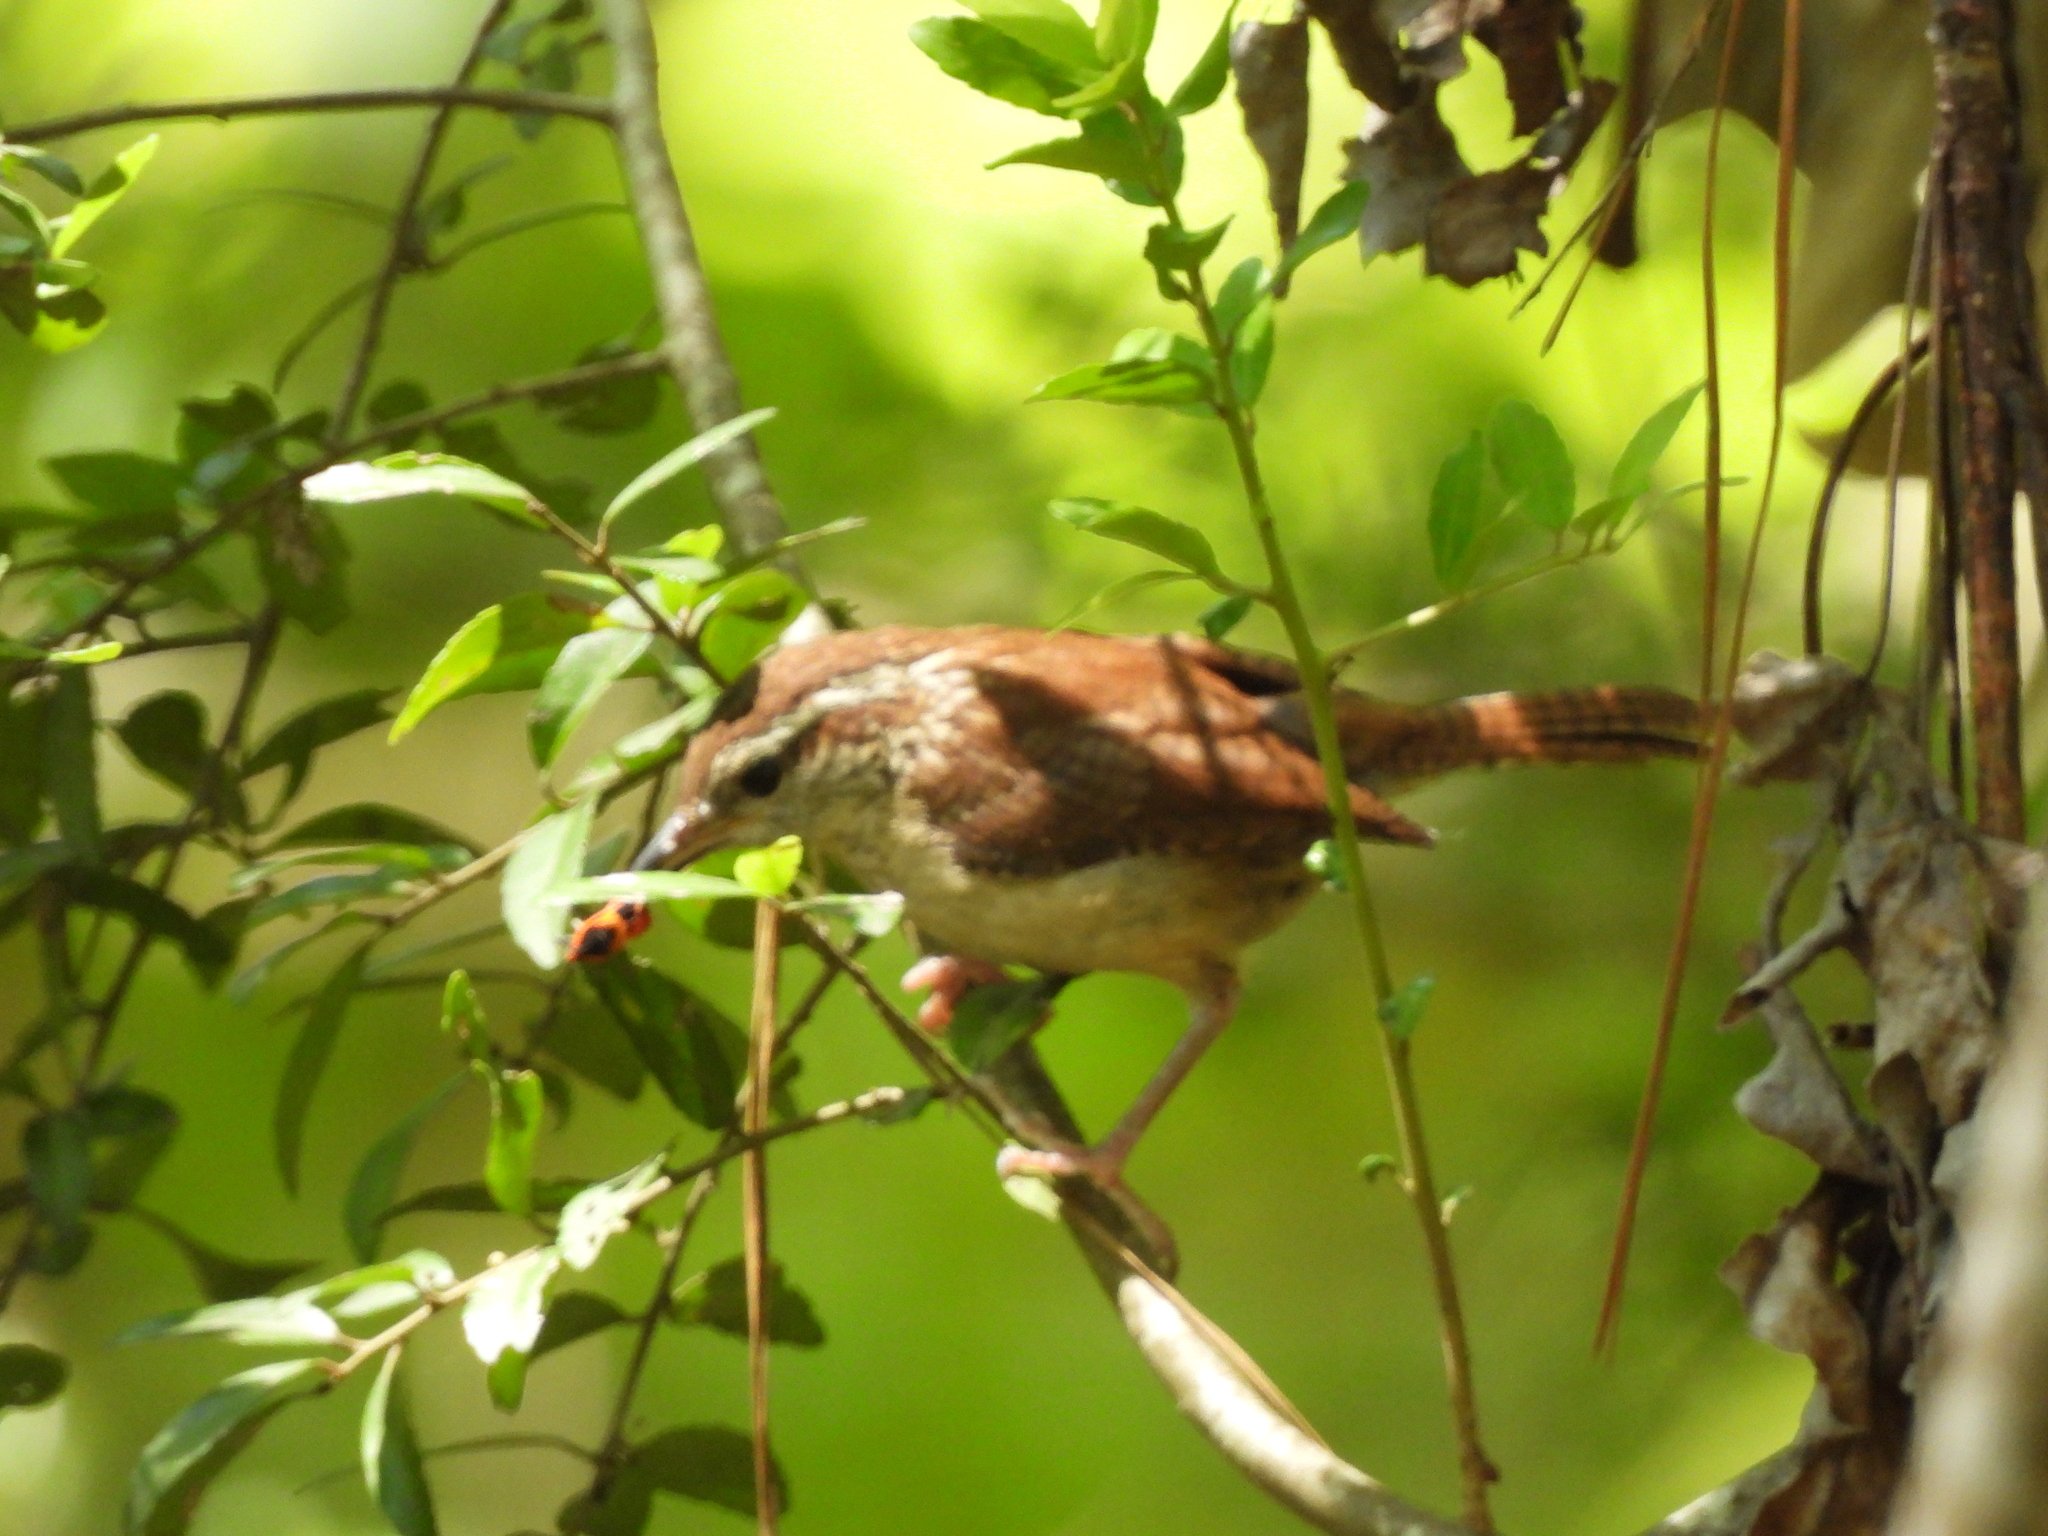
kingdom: Animalia
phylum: Chordata
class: Aves
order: Passeriformes
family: Troglodytidae
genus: Thryothorus
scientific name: Thryothorus ludovicianus
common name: Carolina wren
